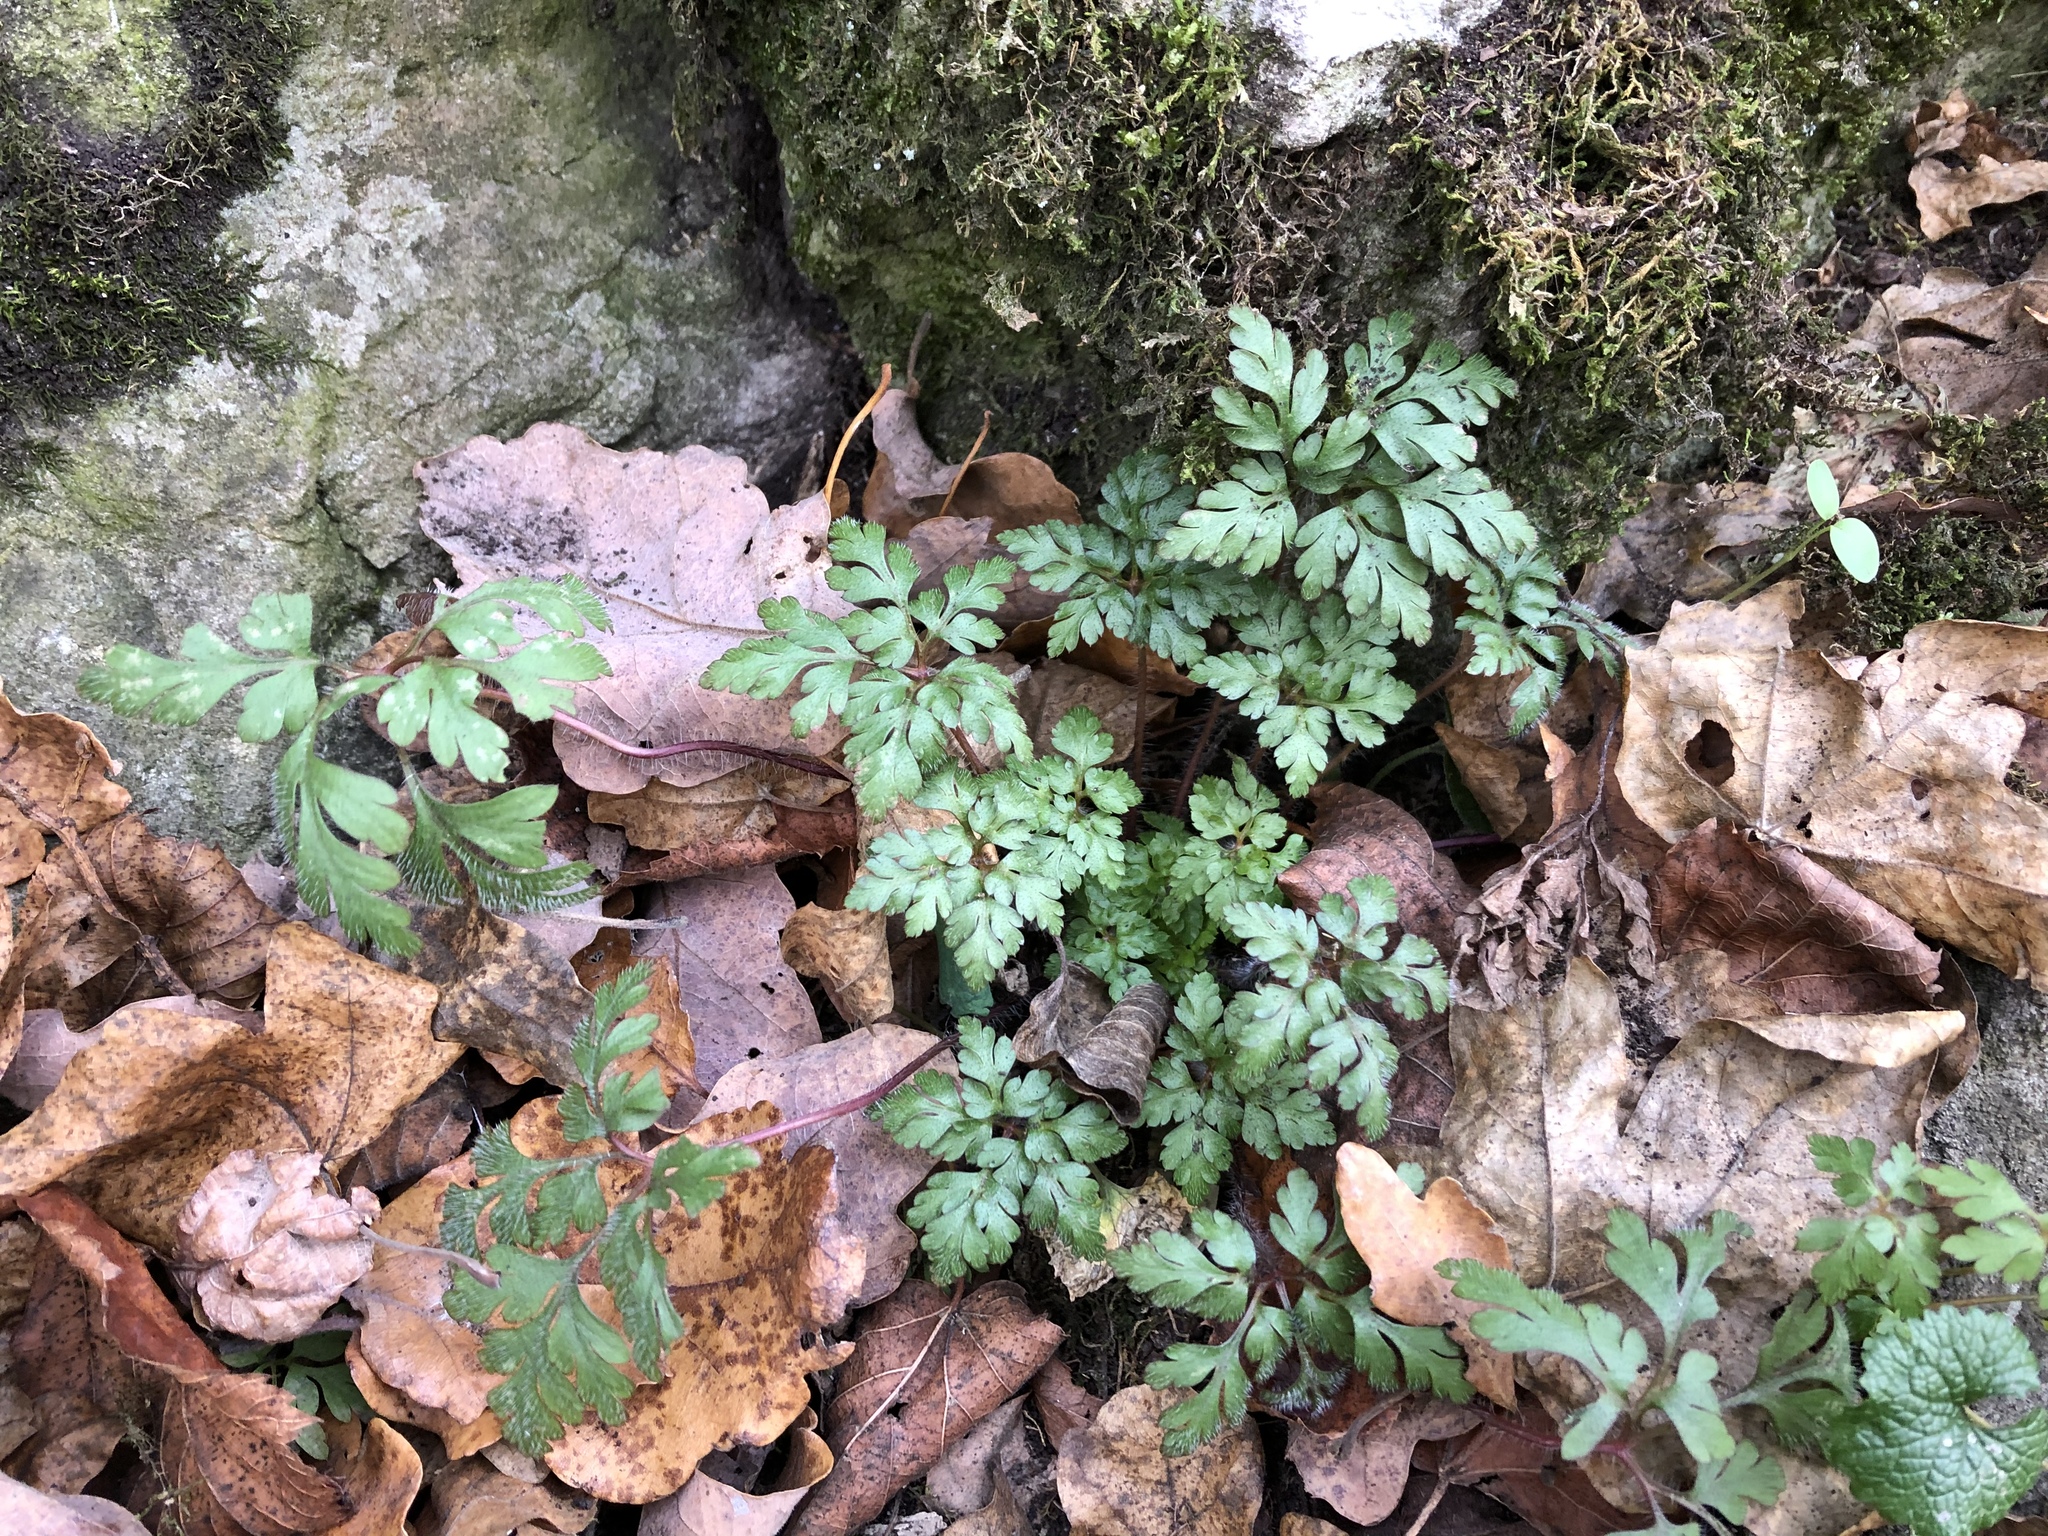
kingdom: Plantae
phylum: Tracheophyta
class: Magnoliopsida
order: Geraniales
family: Geraniaceae
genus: Geranium
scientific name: Geranium robertianum
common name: Herb-robert
